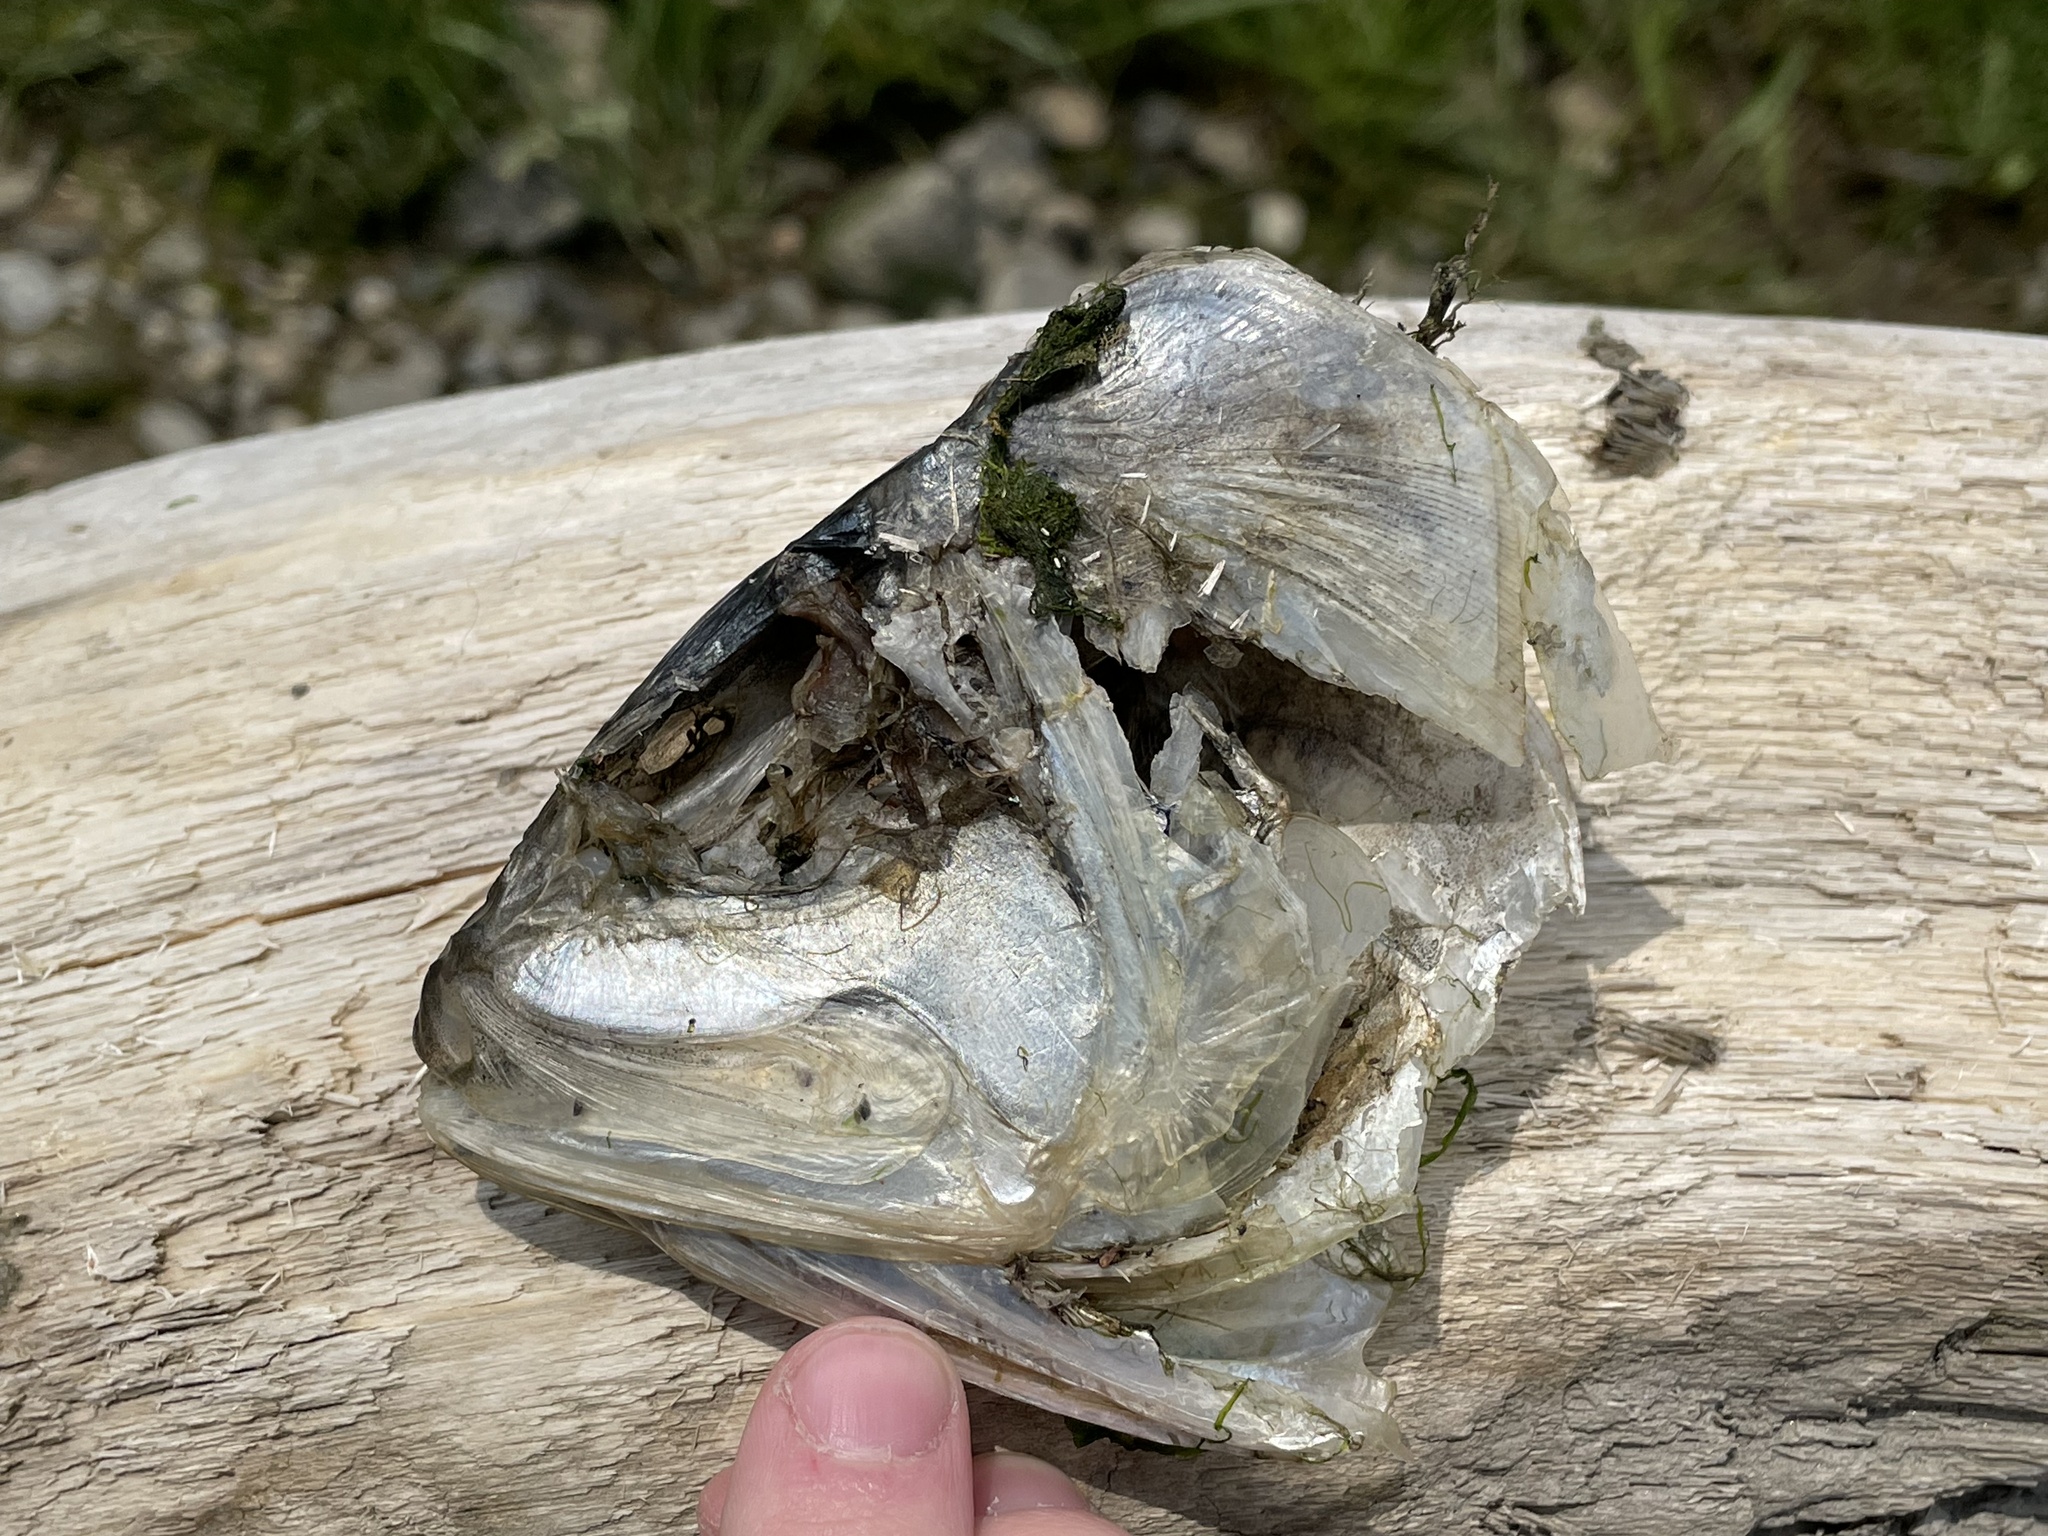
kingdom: Animalia
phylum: Chordata
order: Clupeiformes
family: Clupeidae
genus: Brevoortia
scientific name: Brevoortia tyrannus
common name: Atlantic menhaden
